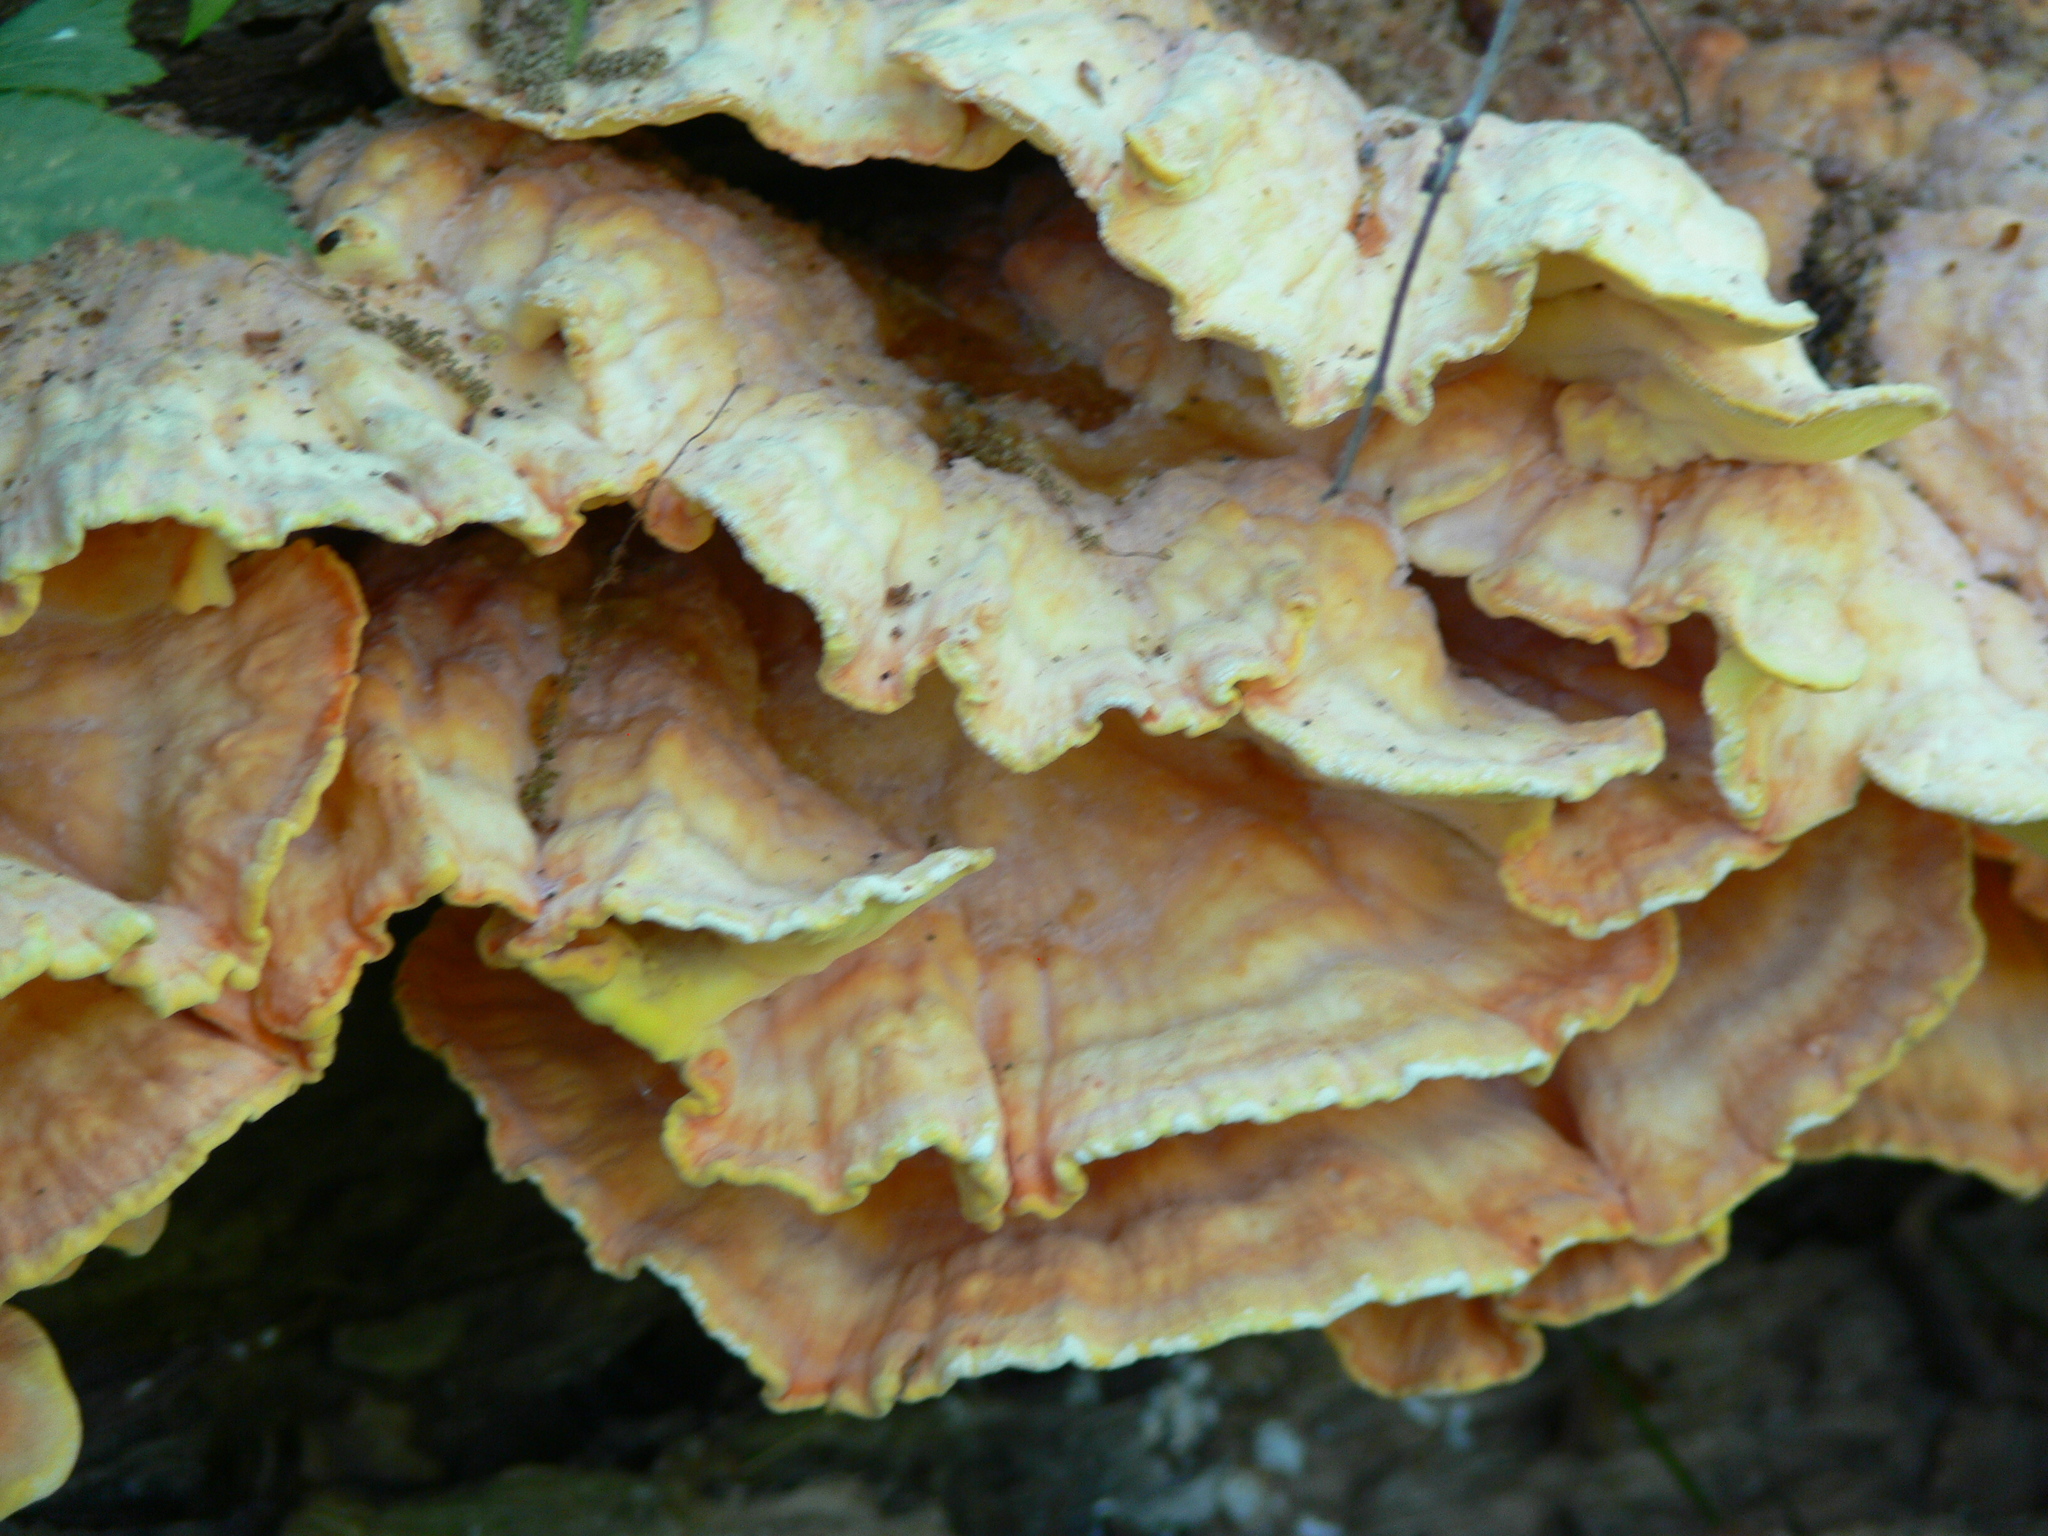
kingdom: Fungi
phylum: Basidiomycota
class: Agaricomycetes
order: Polyporales
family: Laetiporaceae
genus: Laetiporus
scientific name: Laetiporus sulphureus
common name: Chicken of the woods
